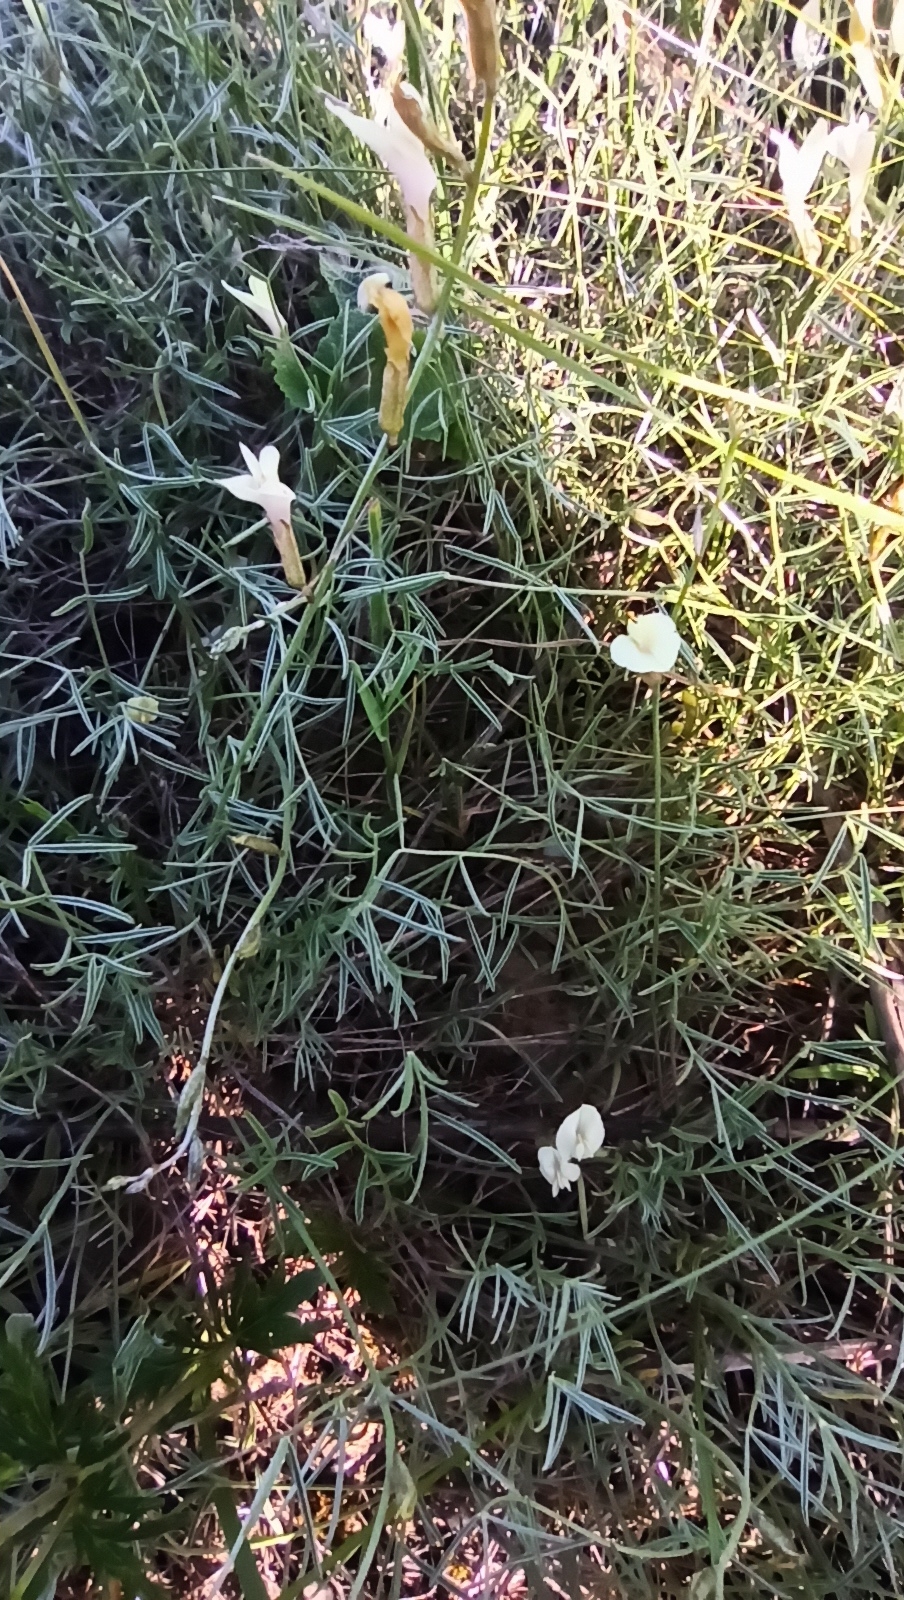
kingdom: Plantae
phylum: Tracheophyta
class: Magnoliopsida
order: Fabales
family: Fabaceae
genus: Astragalus
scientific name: Astragalus pseudotataricus
